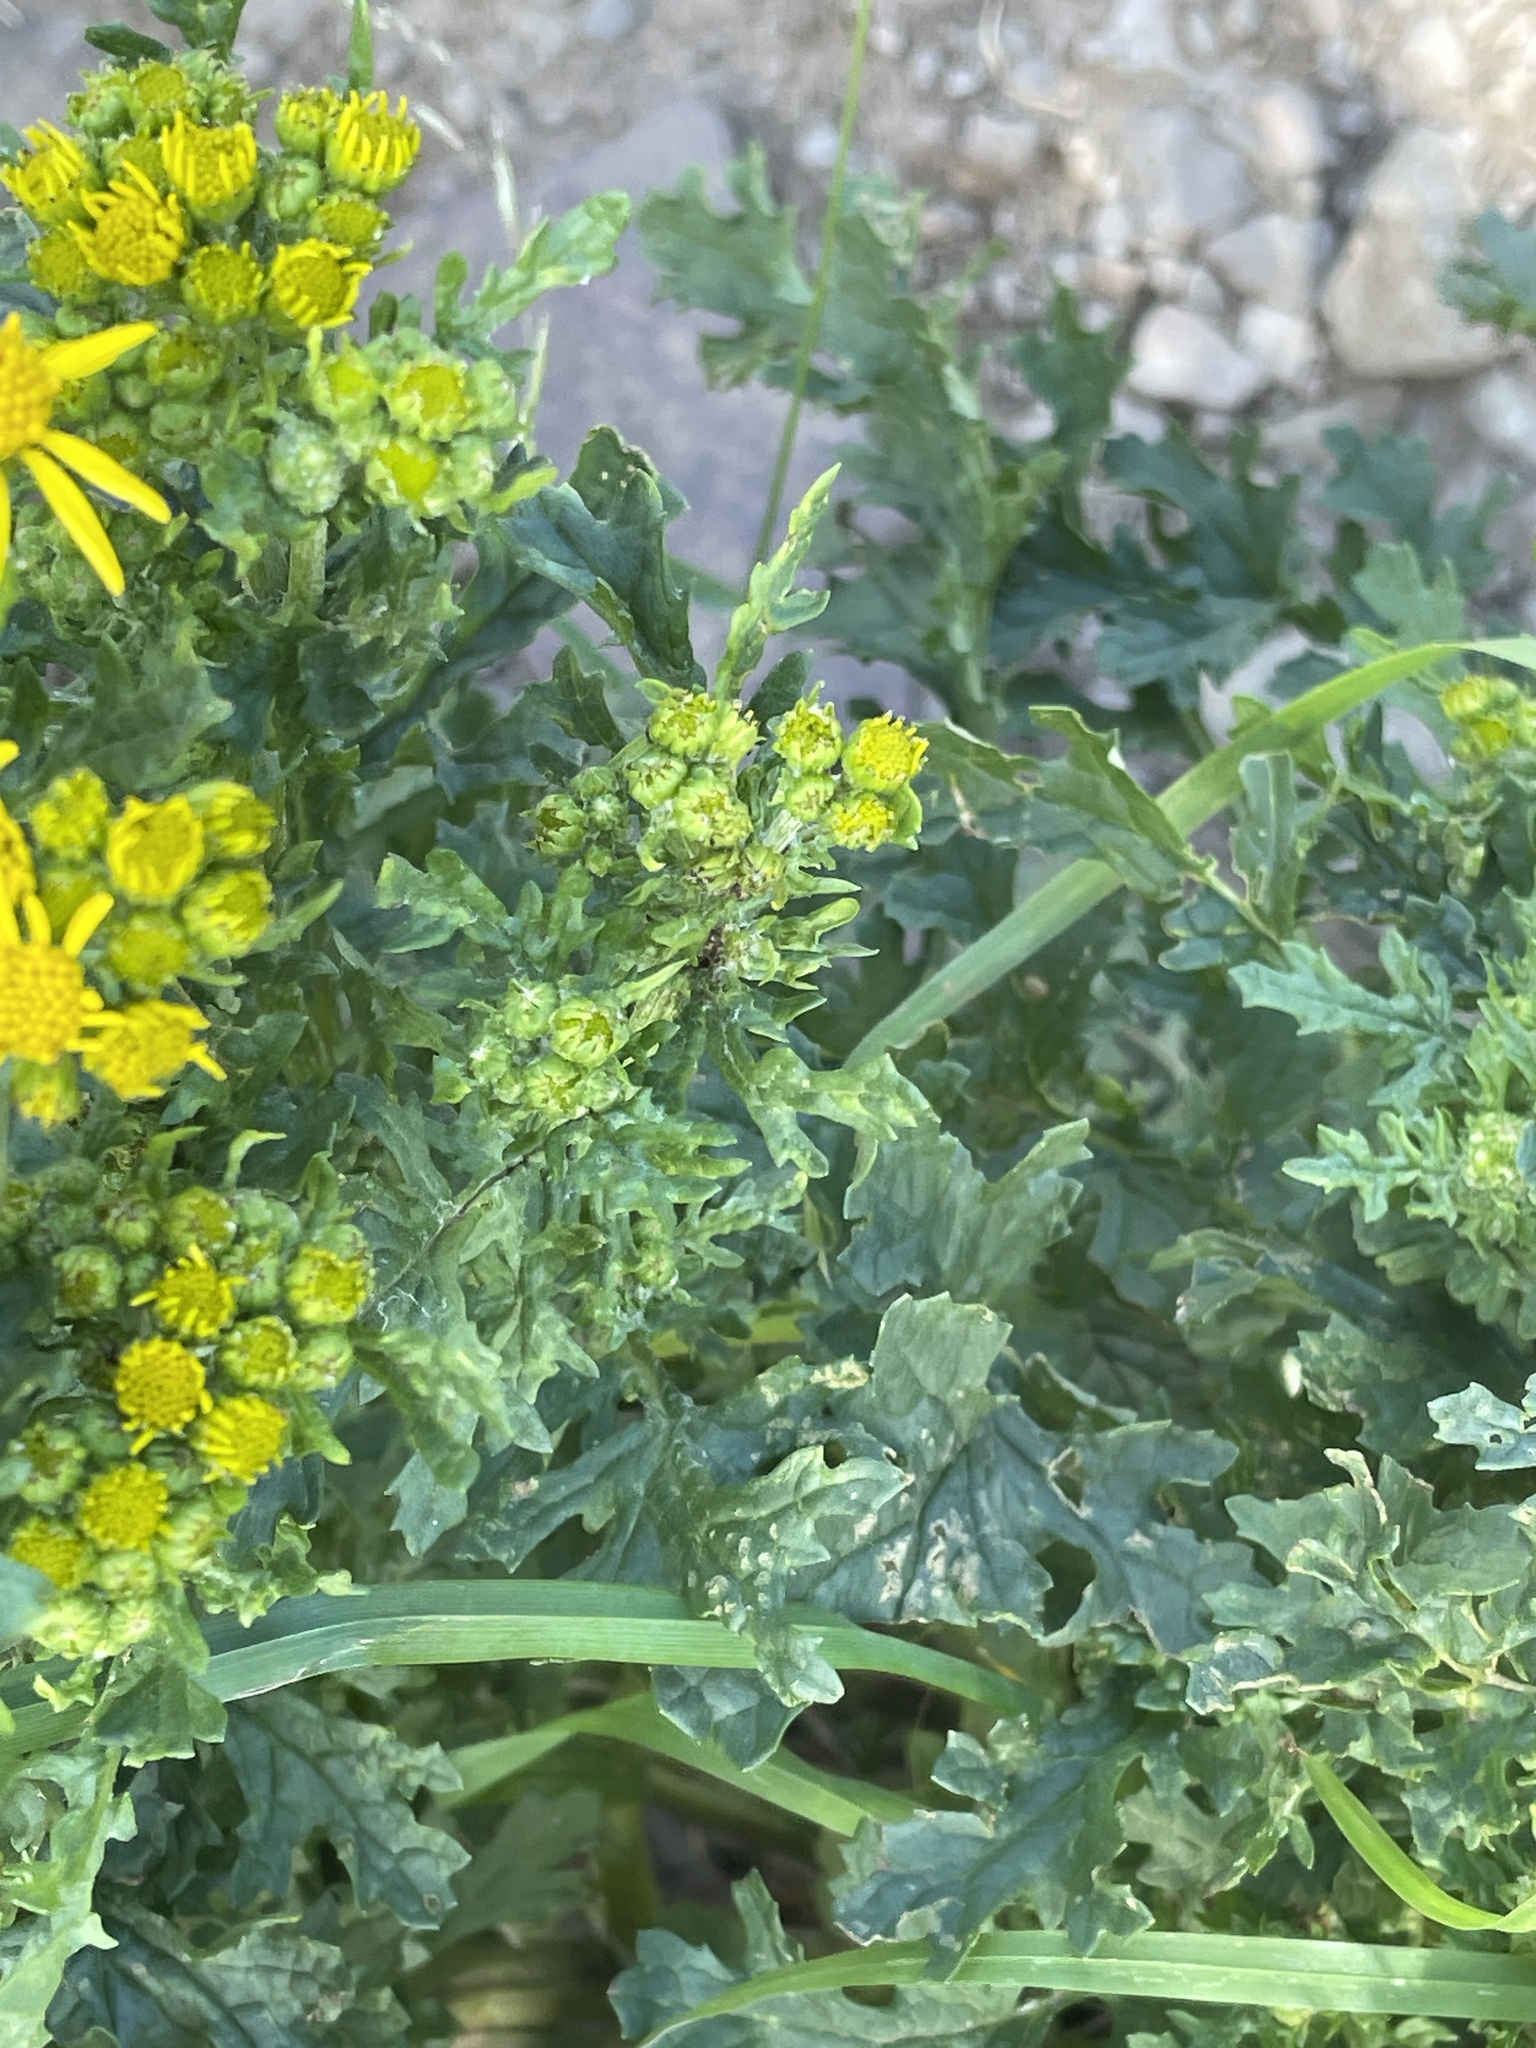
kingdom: Plantae
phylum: Tracheophyta
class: Magnoliopsida
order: Asterales
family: Asteraceae
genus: Jacobaea
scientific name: Jacobaea vulgaris
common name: Stinking willie
